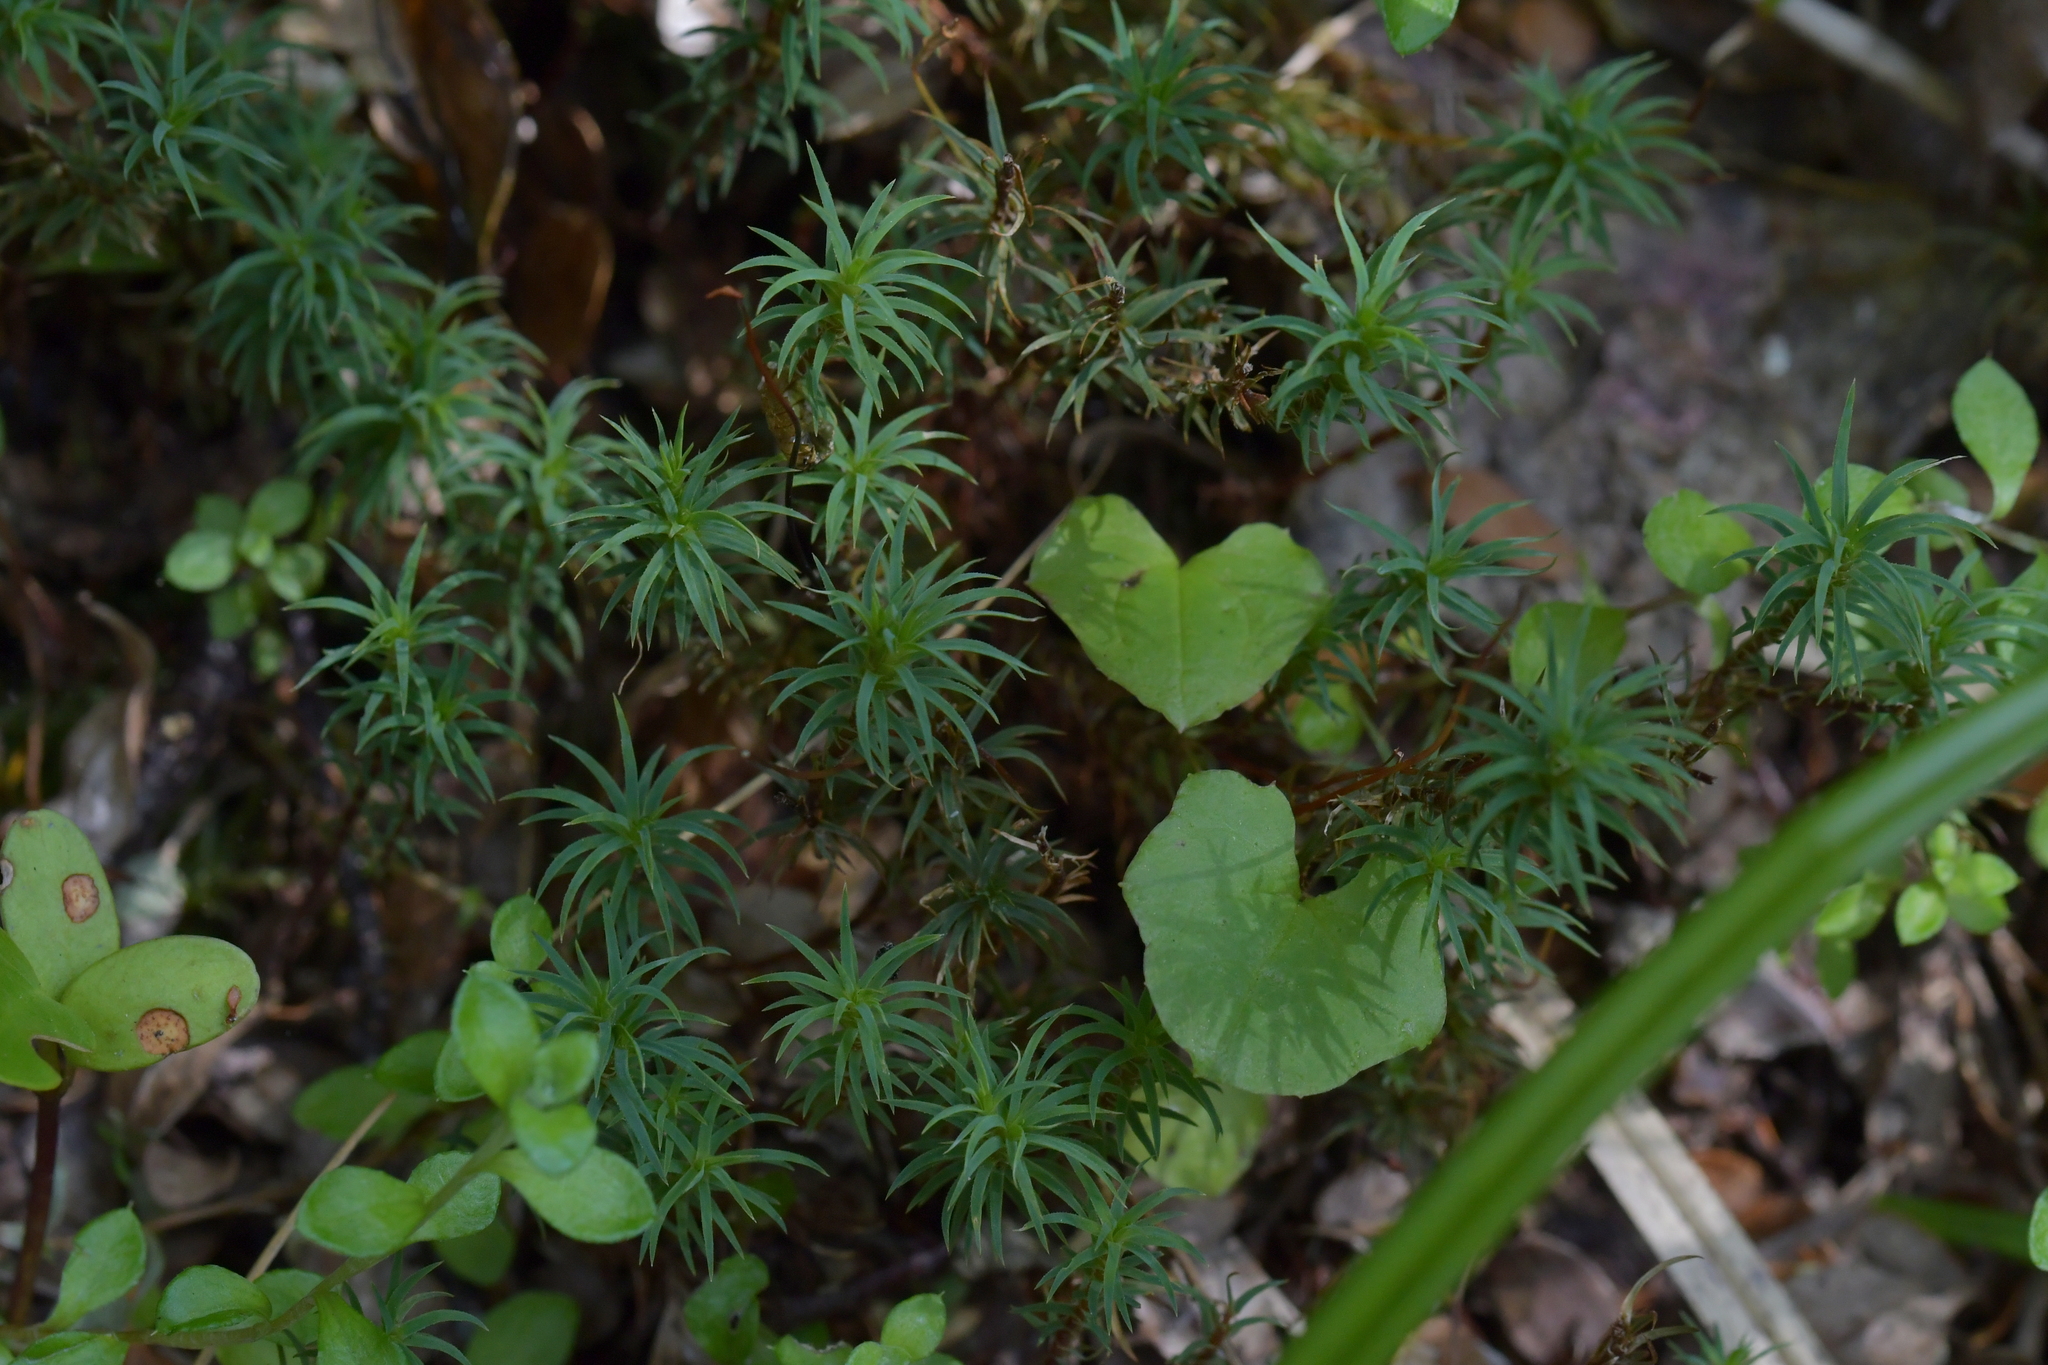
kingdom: Plantae
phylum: Bryophyta
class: Polytrichopsida
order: Polytrichales
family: Polytrichaceae
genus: Polytrichadelphus
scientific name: Polytrichadelphus magellanicus
